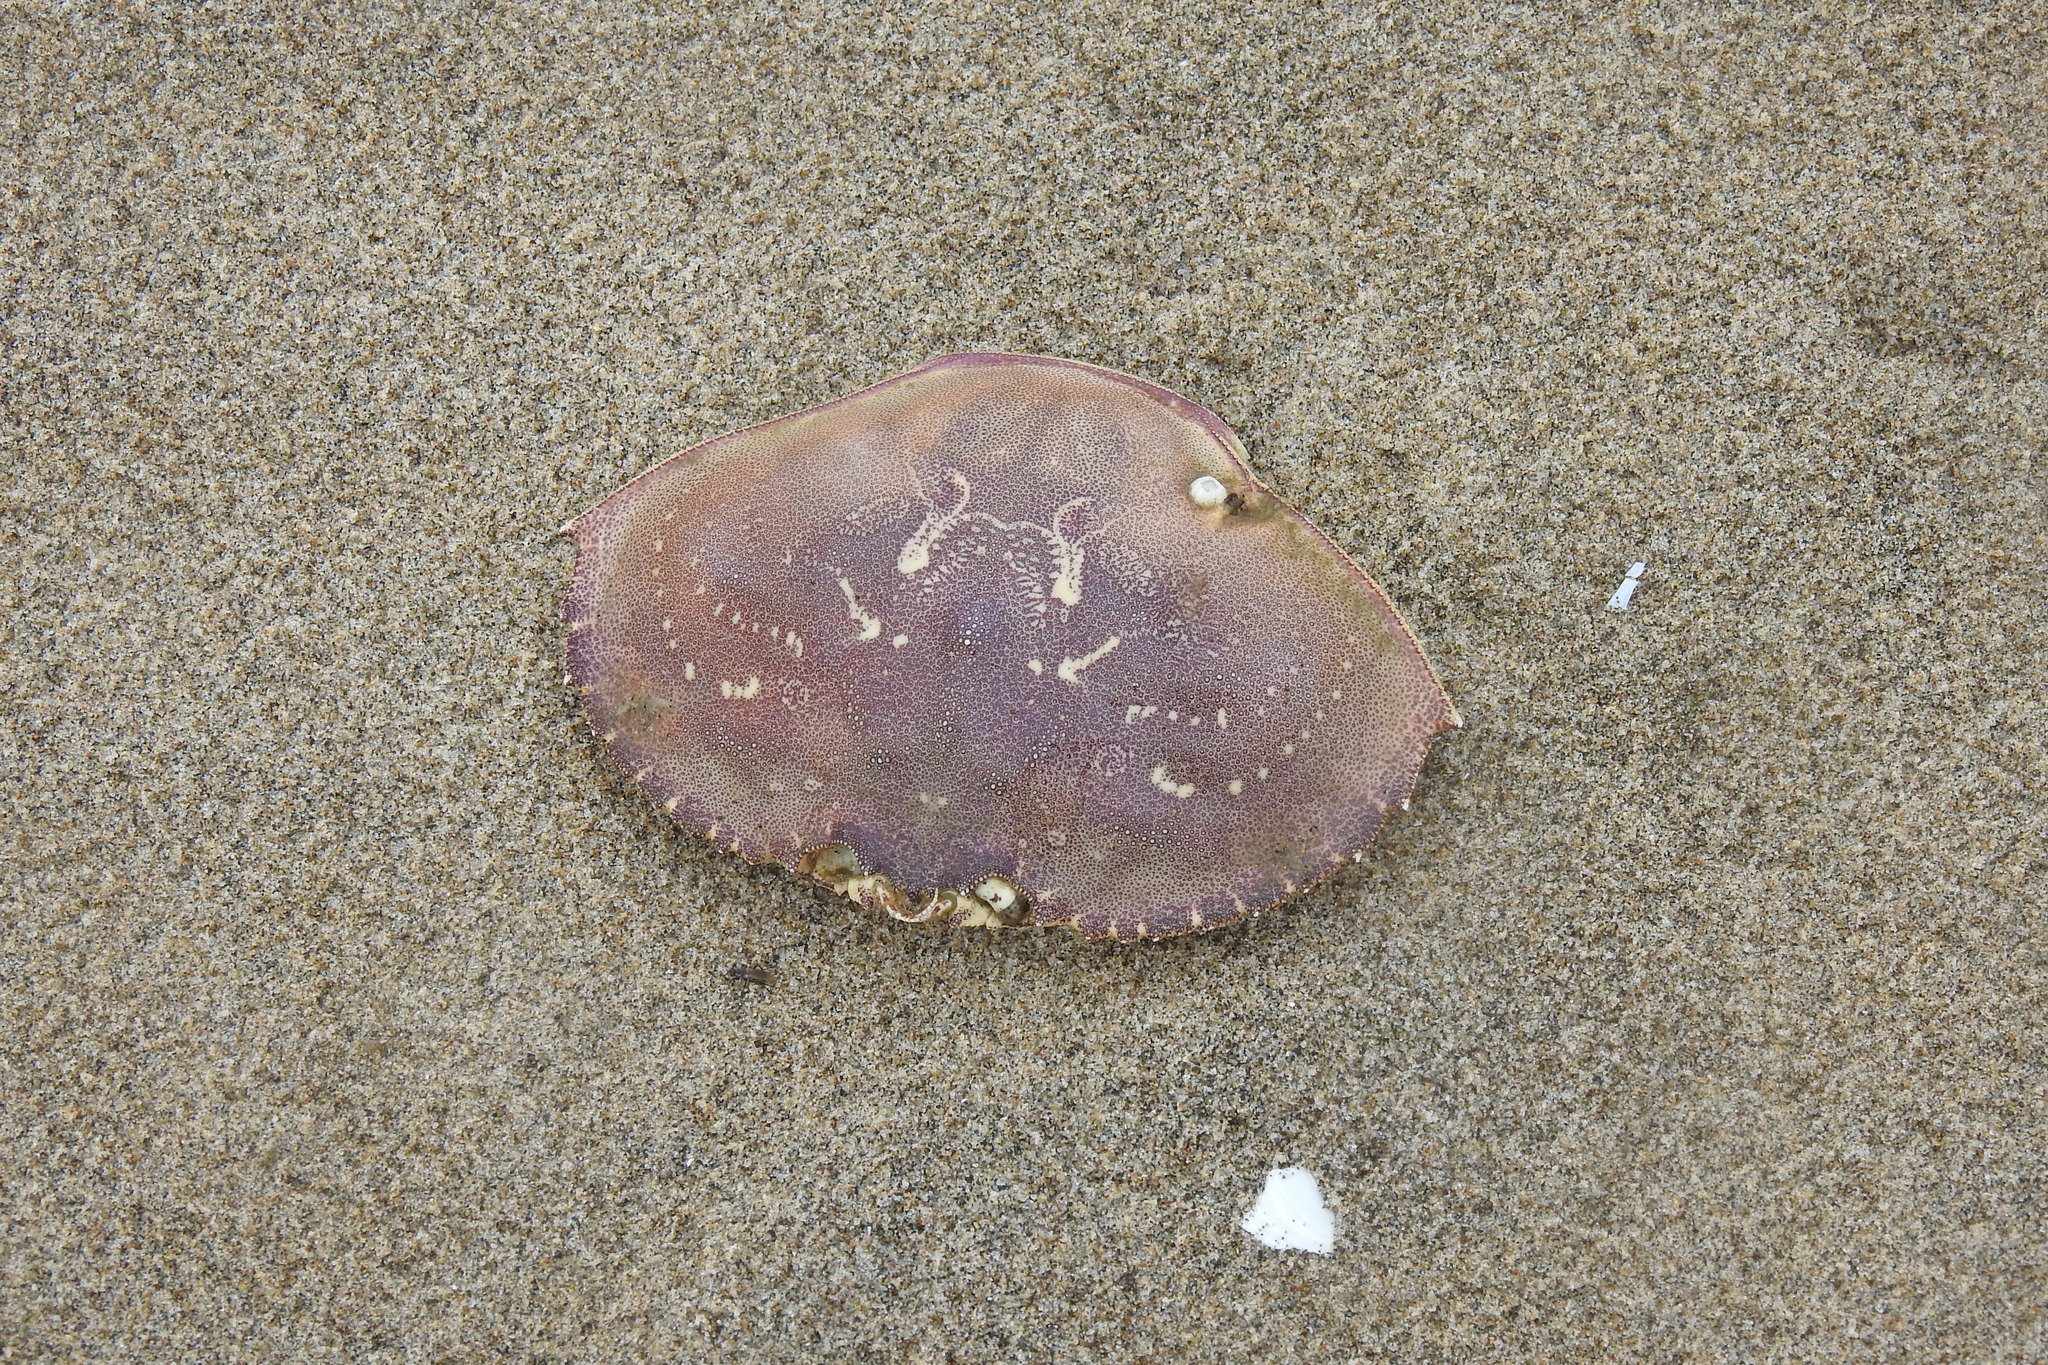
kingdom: Animalia
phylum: Arthropoda
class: Malacostraca
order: Decapoda
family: Cancridae
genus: Metacarcinus
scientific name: Metacarcinus magister
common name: Californian crab
